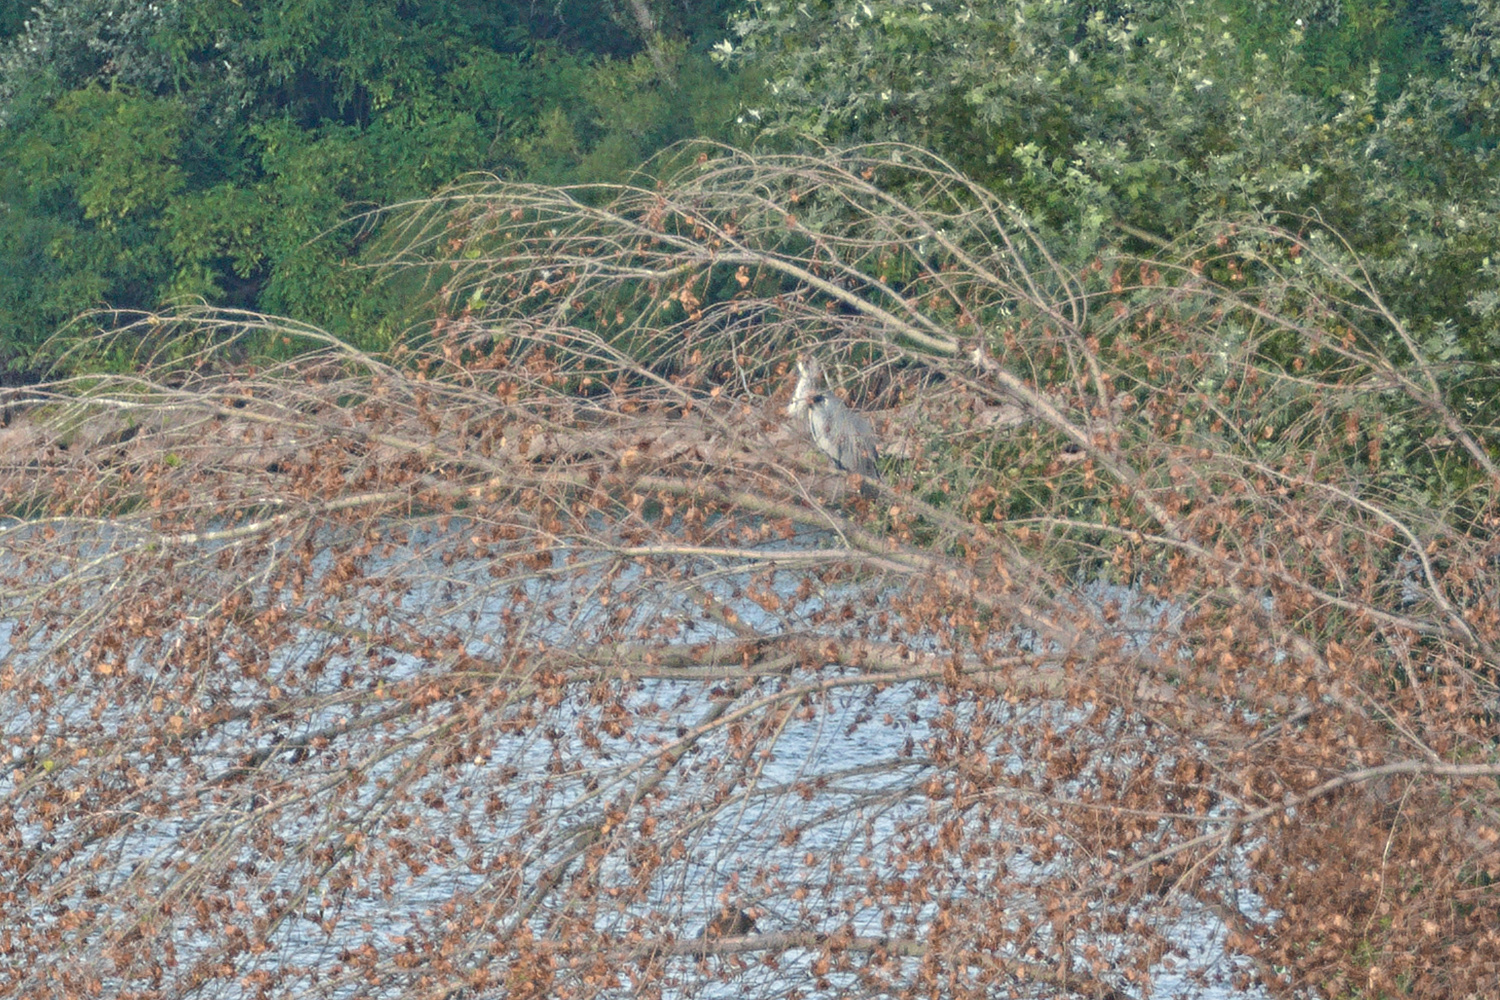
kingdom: Animalia
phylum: Chordata
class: Aves
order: Pelecaniformes
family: Ardeidae
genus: Ardea
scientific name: Ardea cinerea
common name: Grey heron
